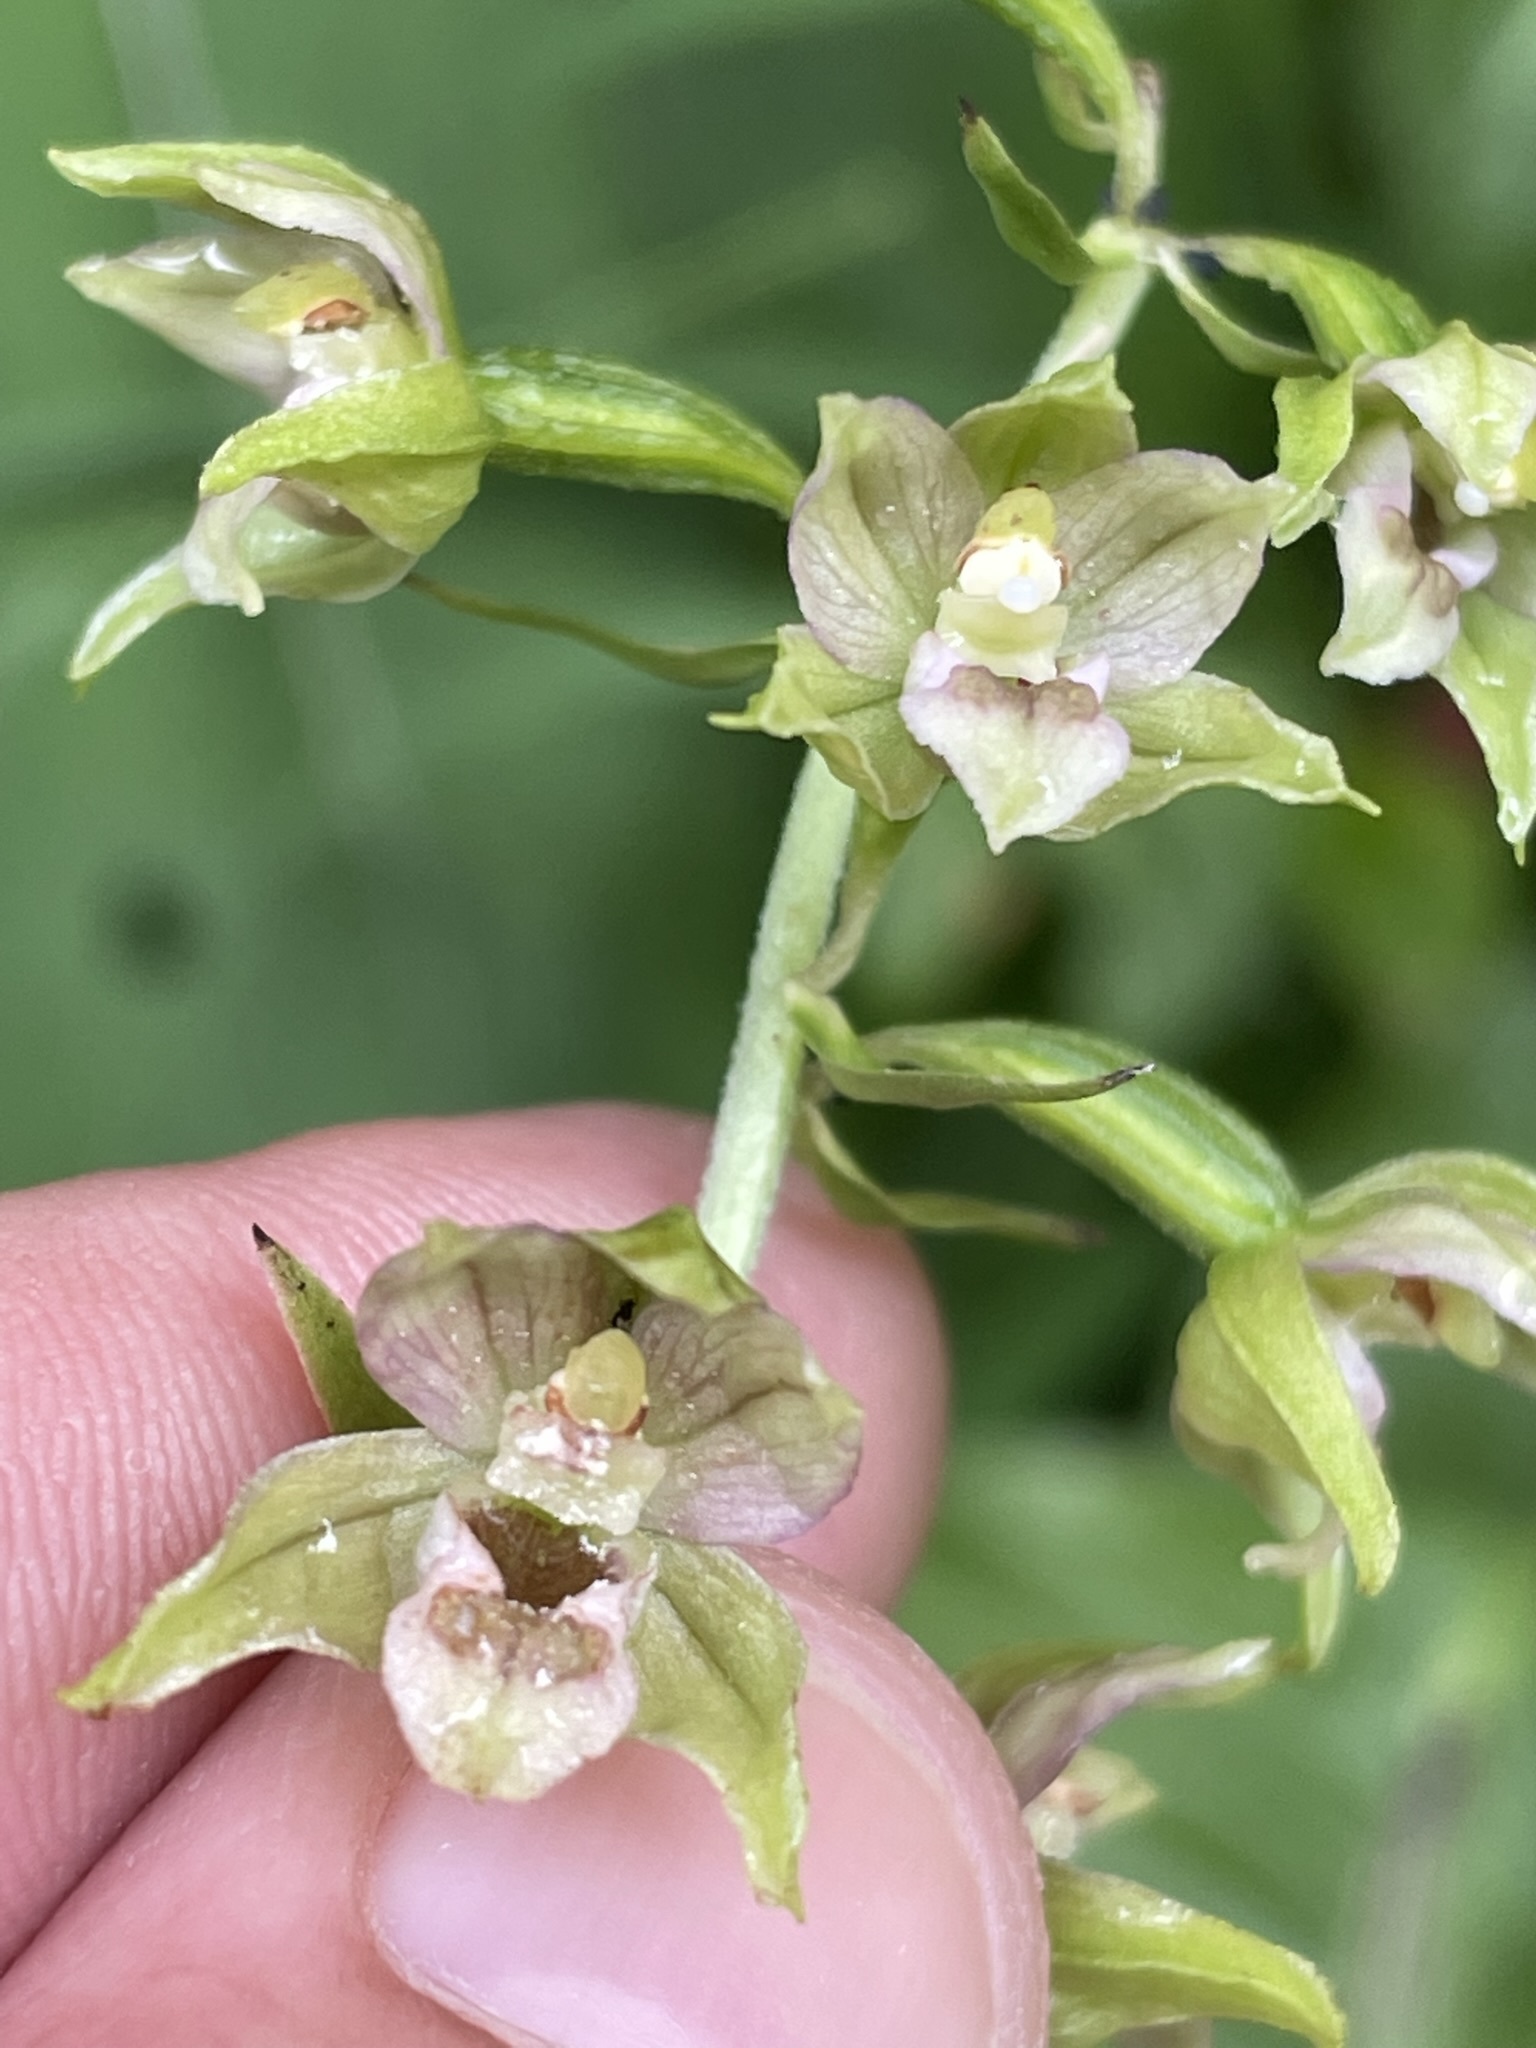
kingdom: Plantae
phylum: Tracheophyta
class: Liliopsida
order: Asparagales
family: Orchidaceae
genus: Epipactis
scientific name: Epipactis helleborine
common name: Broad-leaved helleborine
